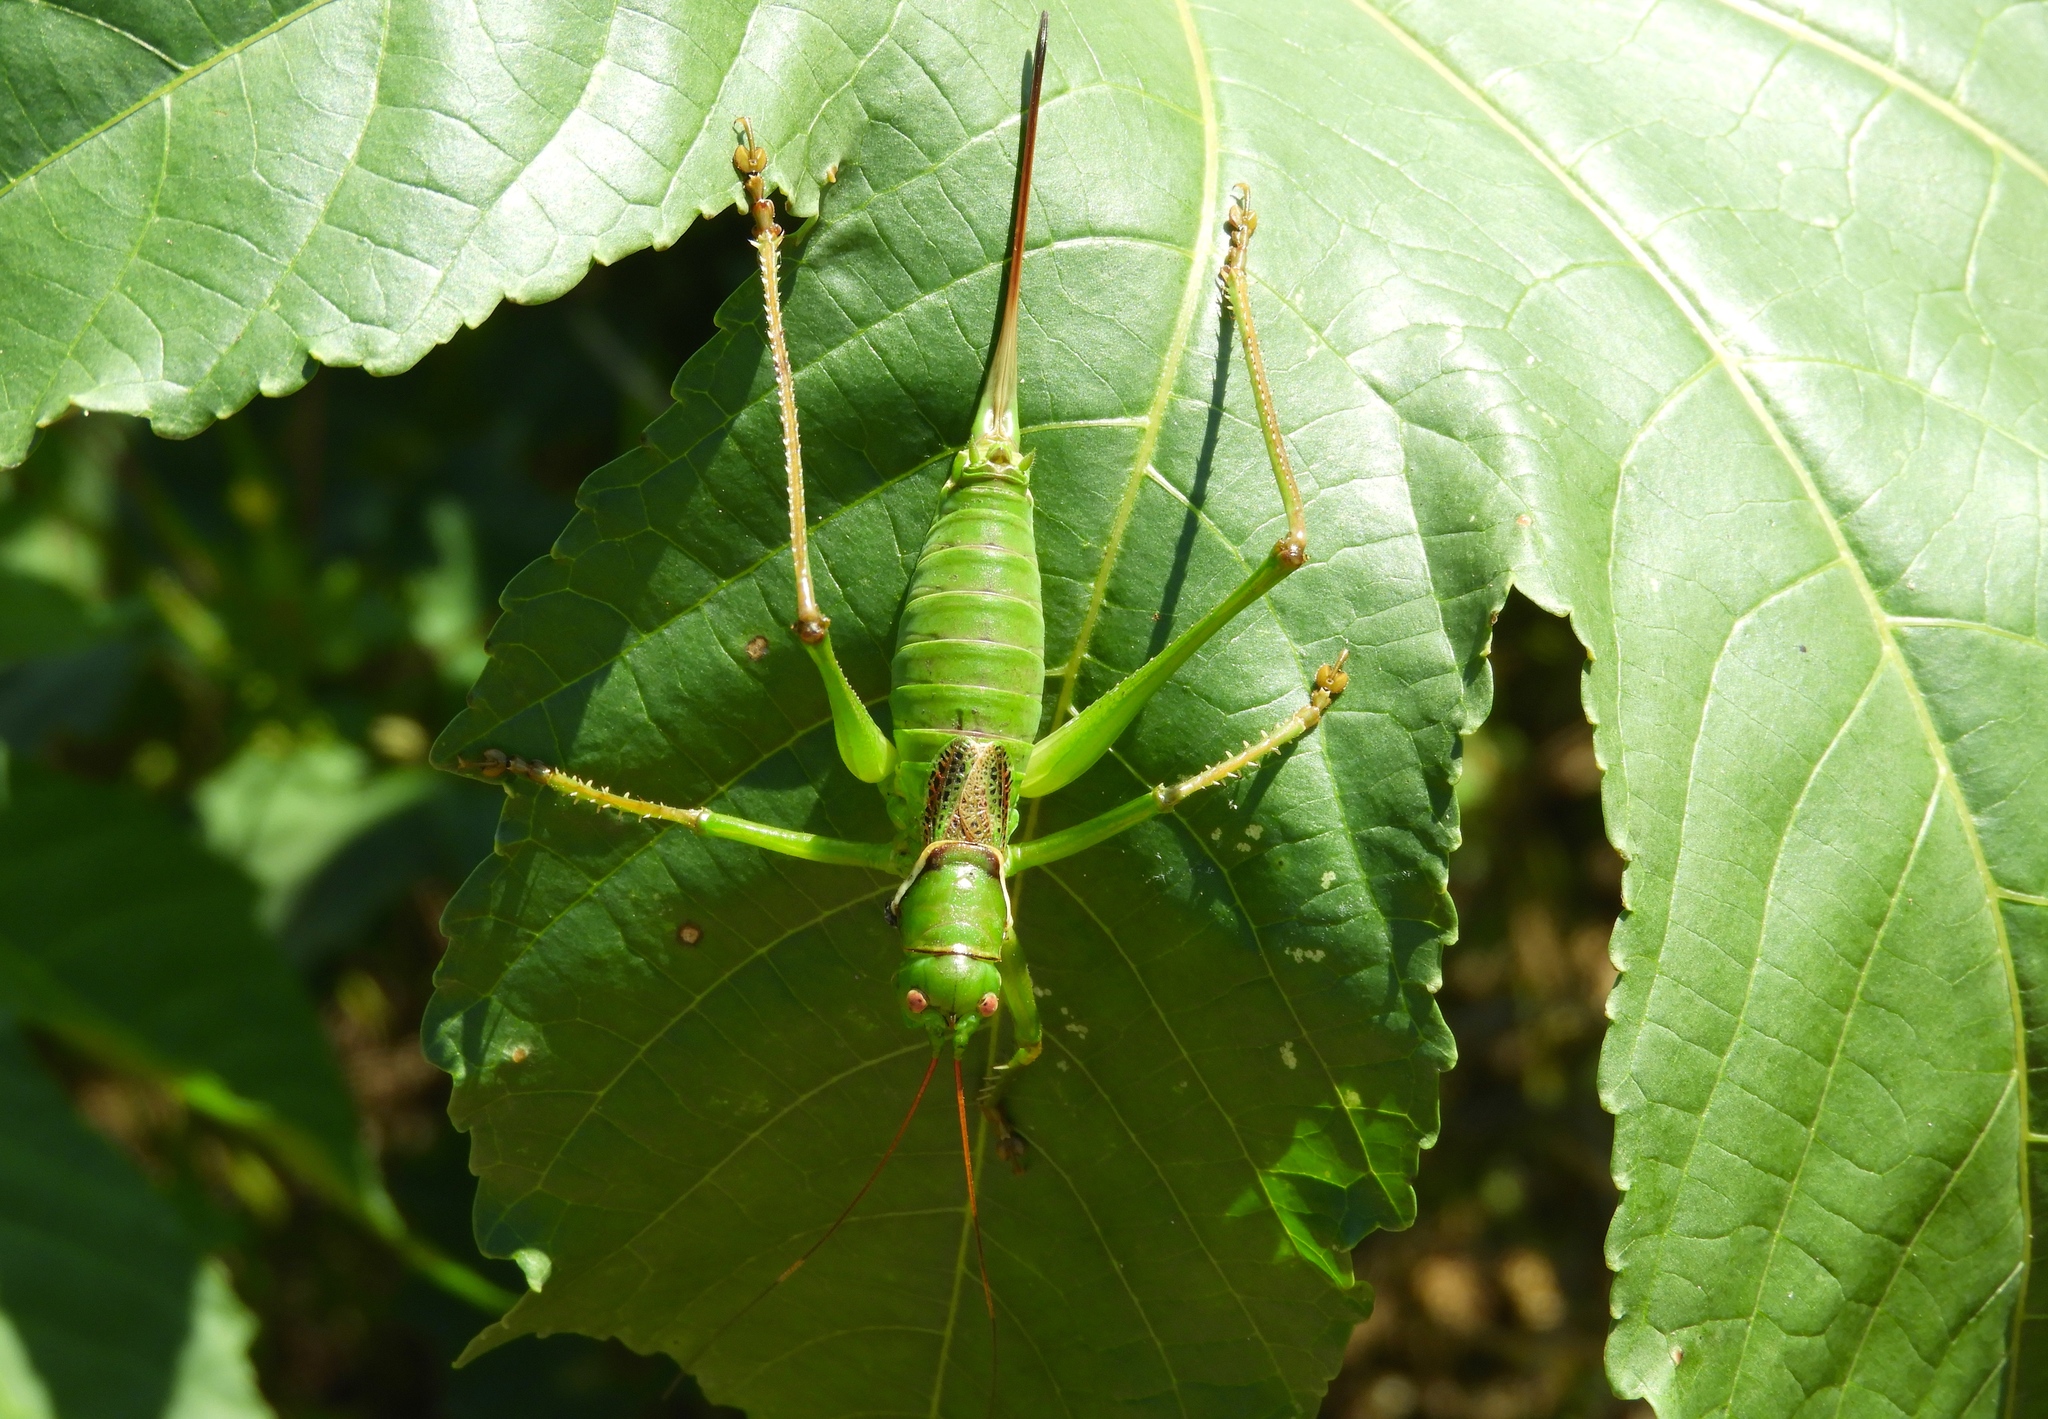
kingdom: Animalia
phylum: Arthropoda
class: Insecta
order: Orthoptera
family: Tettigoniidae
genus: Neobarrettia
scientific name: Neobarrettia sinaloae
